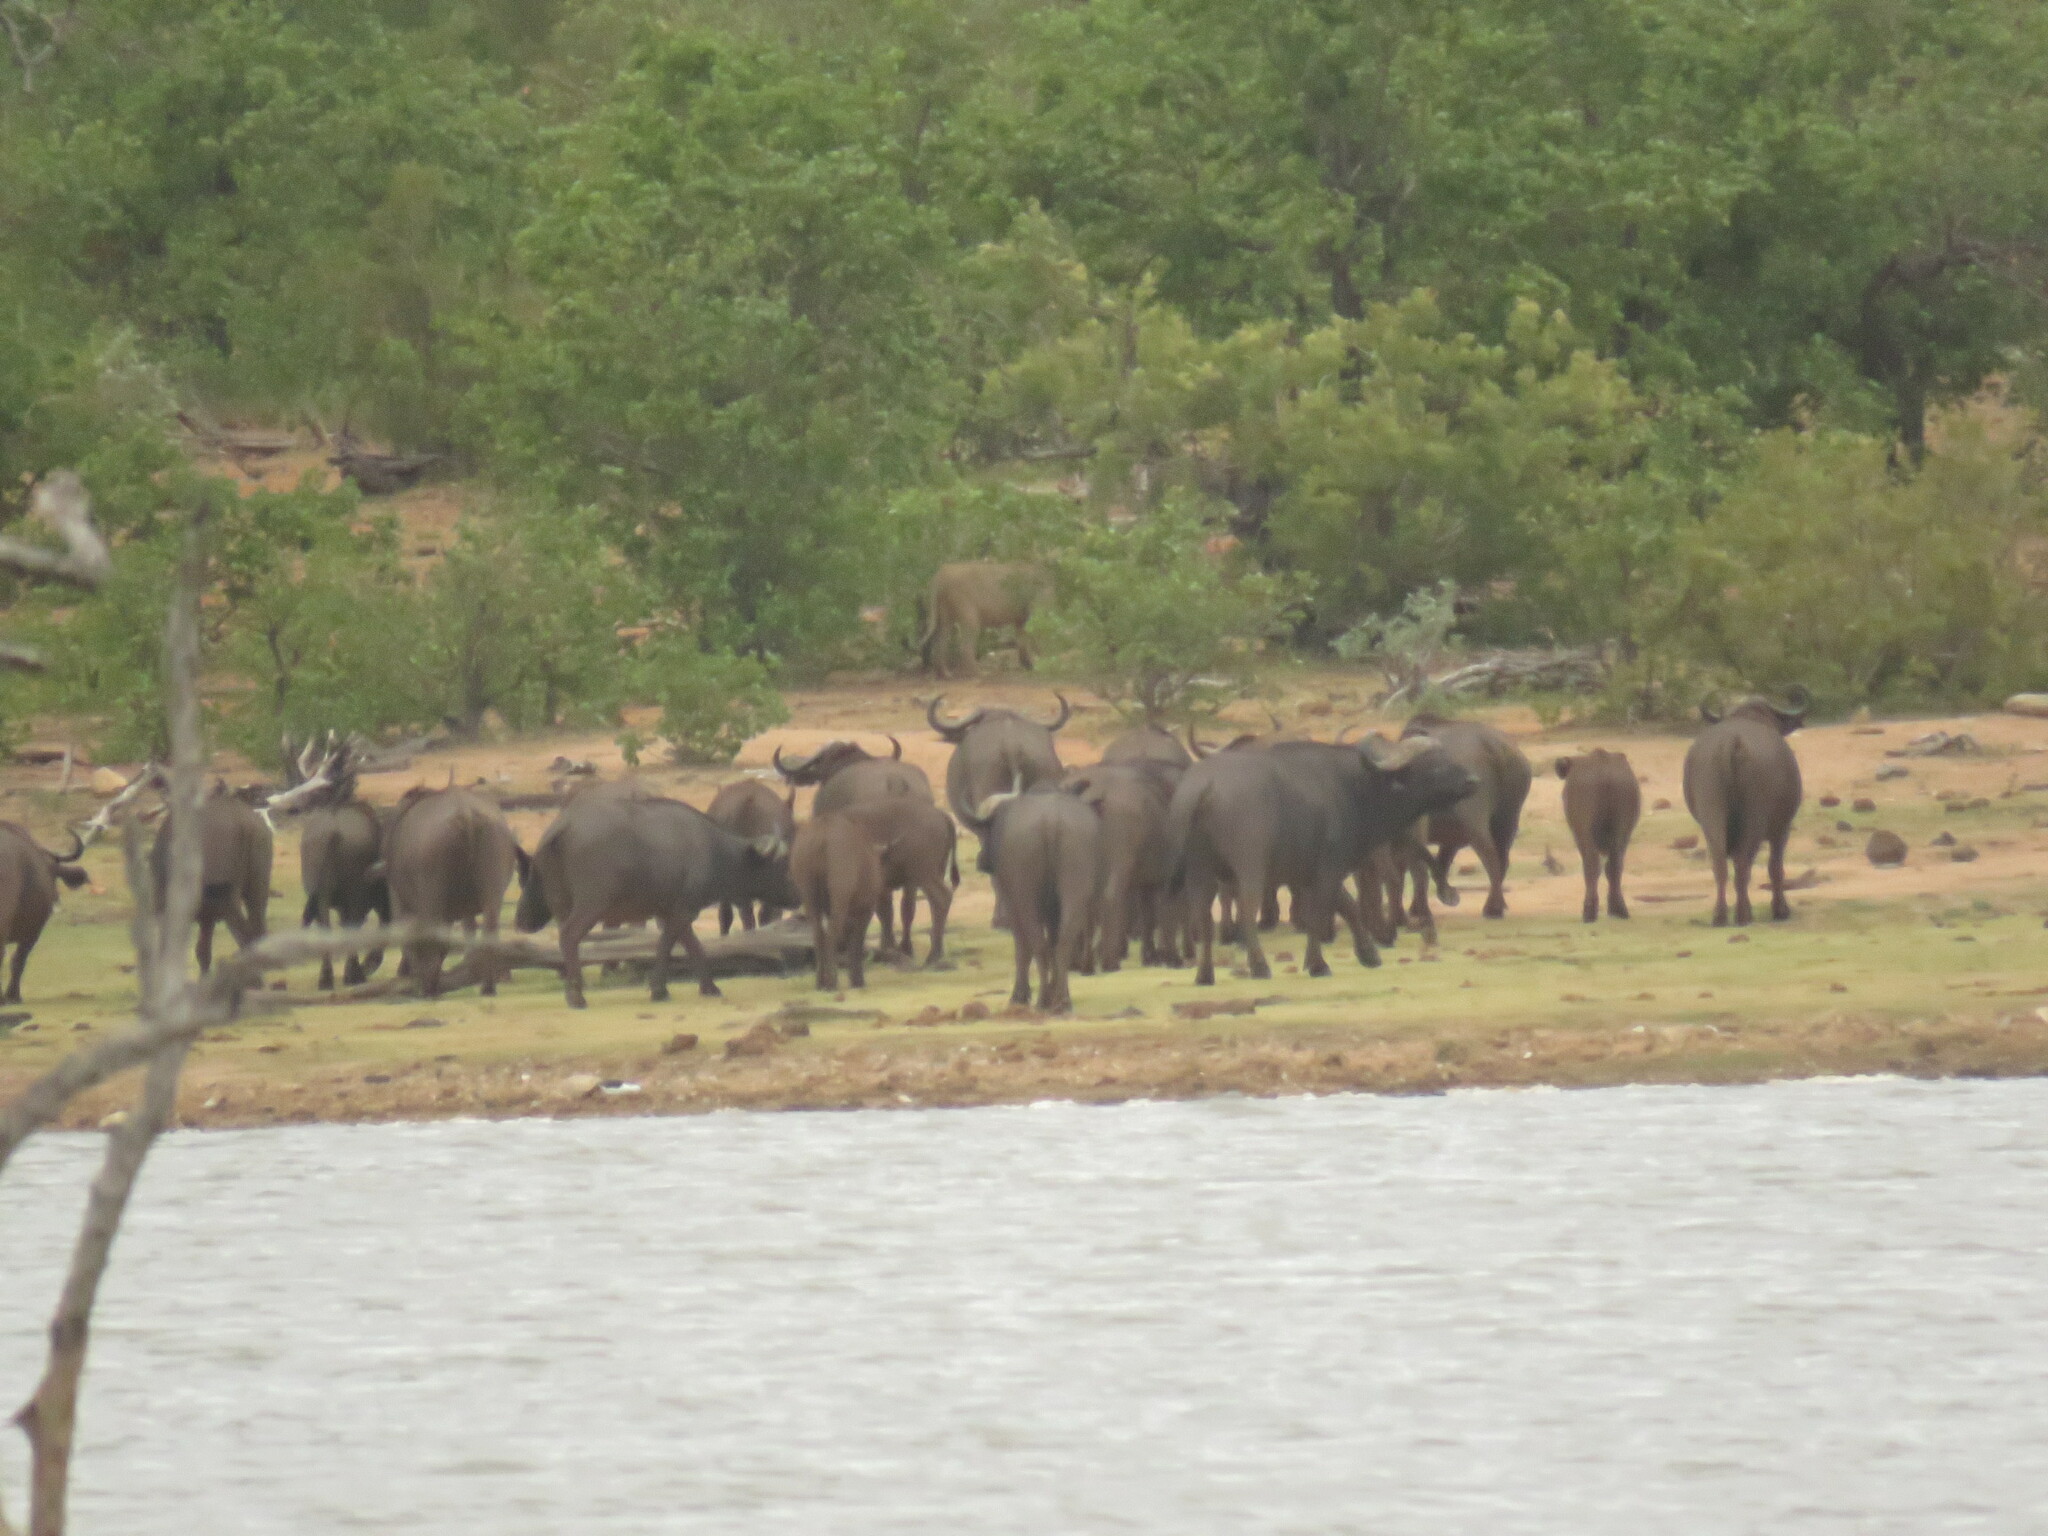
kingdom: Animalia
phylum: Chordata
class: Mammalia
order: Carnivora
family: Felidae
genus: Panthera
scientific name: Panthera leo
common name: Lion
